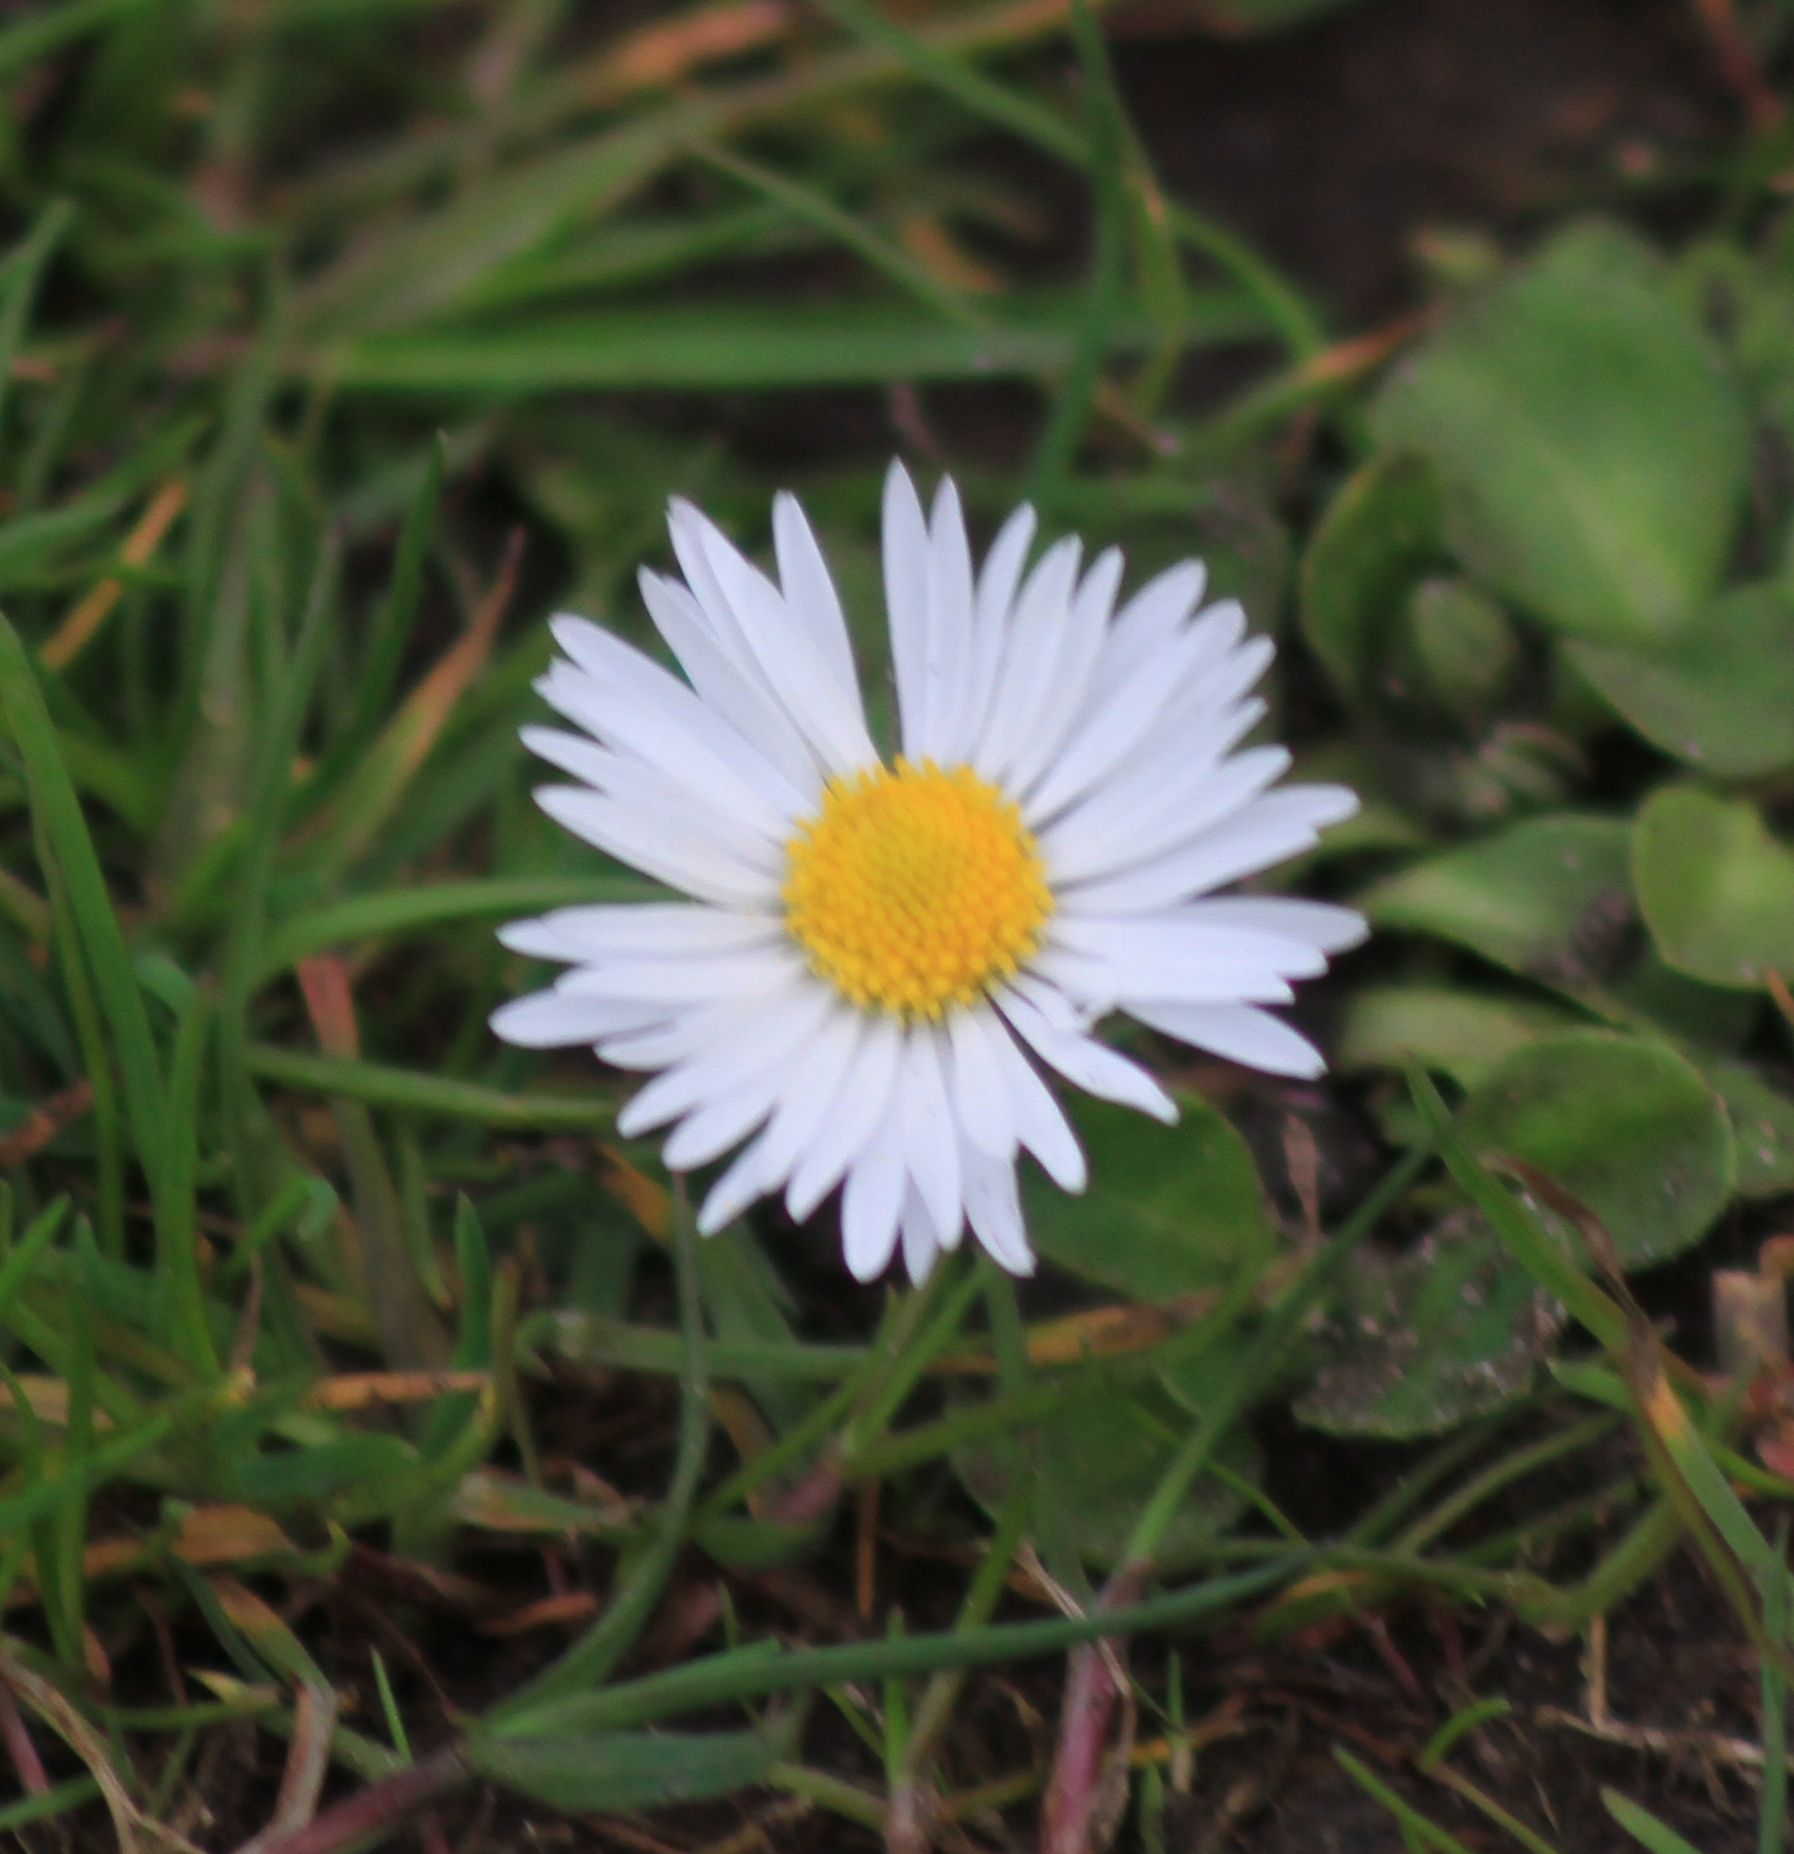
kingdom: Plantae
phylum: Tracheophyta
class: Magnoliopsida
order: Asterales
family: Asteraceae
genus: Bellis
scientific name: Bellis perennis
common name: Lawndaisy
